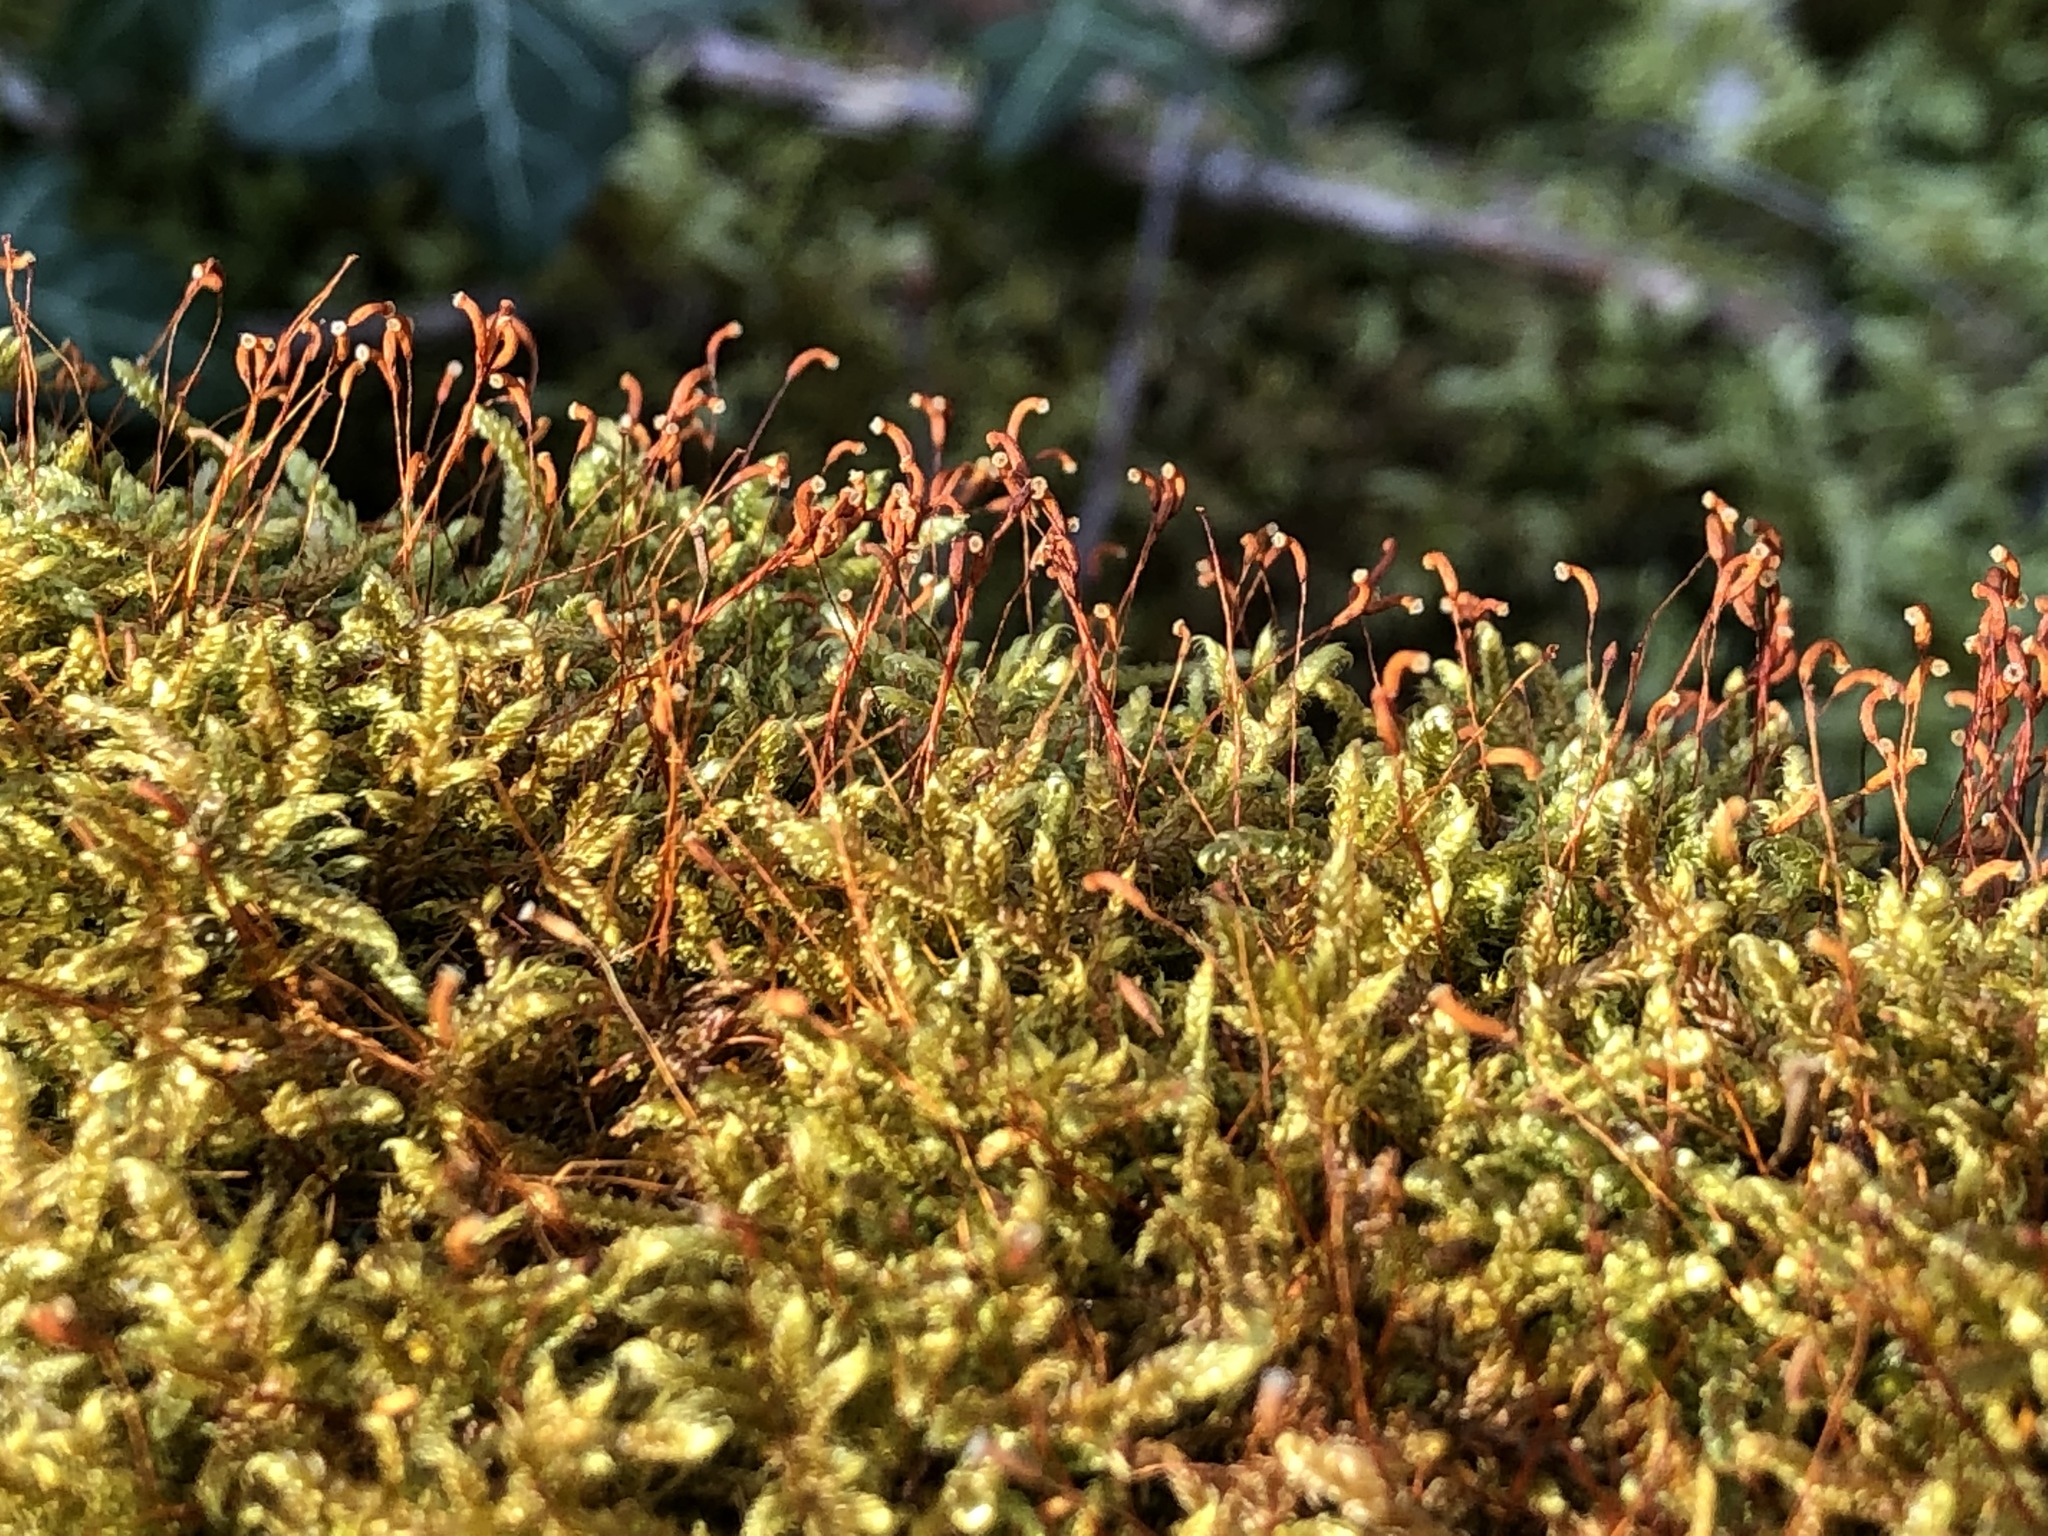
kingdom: Plantae
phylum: Bryophyta
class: Bryopsida
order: Hypnales
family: Hypnaceae
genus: Hypnum
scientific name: Hypnum cupressiforme
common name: Cypress-leaved plait-moss
